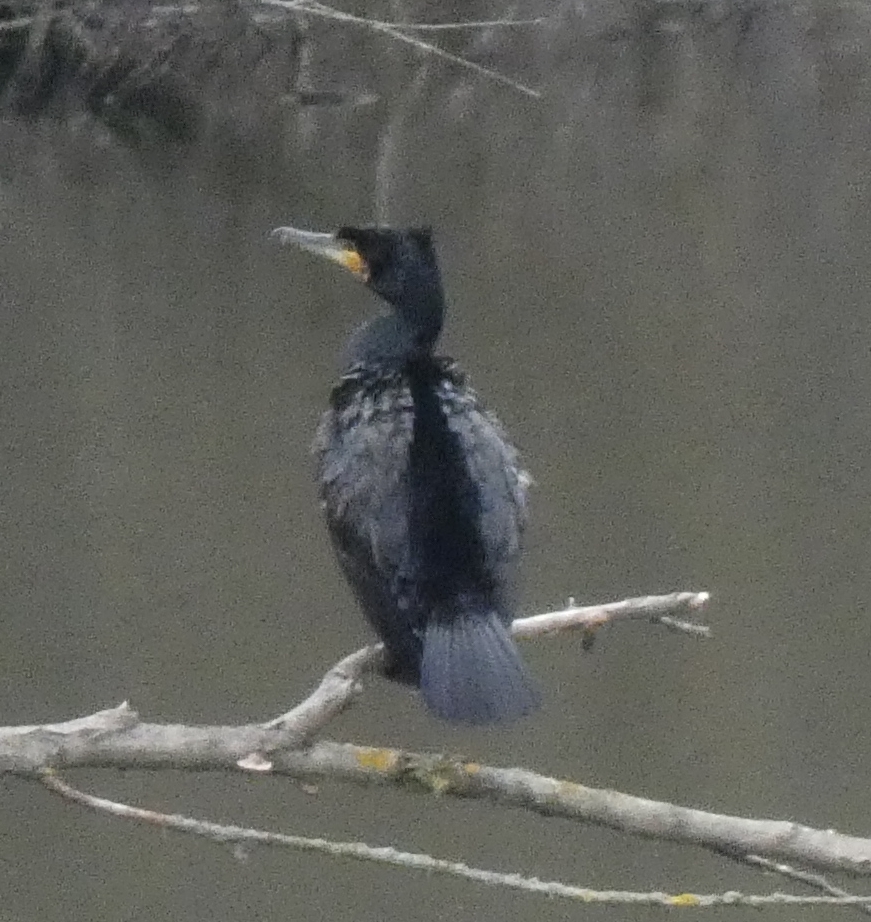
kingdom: Animalia
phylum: Chordata
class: Aves
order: Suliformes
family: Phalacrocoracidae
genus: Phalacrocorax
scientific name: Phalacrocorax carbo
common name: Great cormorant
